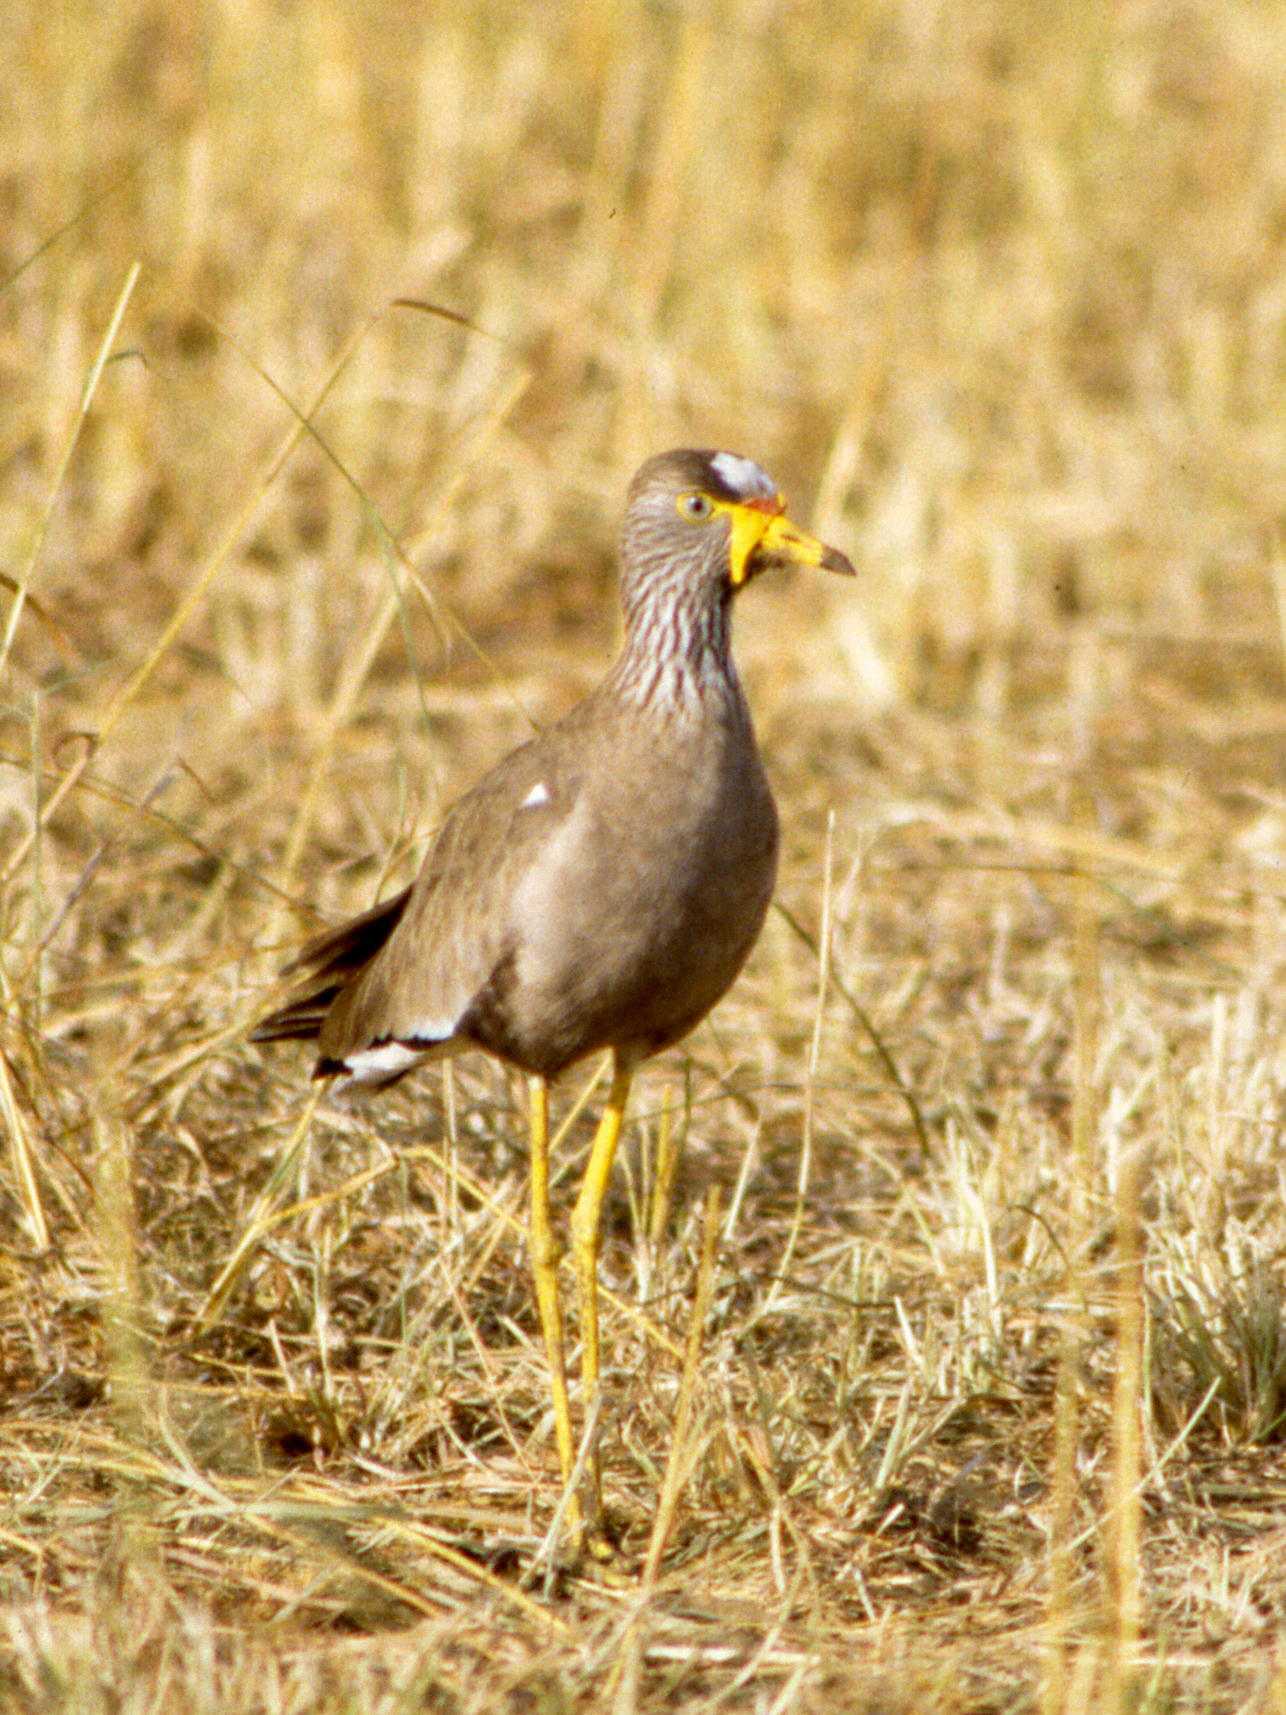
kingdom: Animalia
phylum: Chordata
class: Aves
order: Charadriiformes
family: Charadriidae
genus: Vanellus
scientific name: Vanellus senegallus
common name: African wattled lapwing
